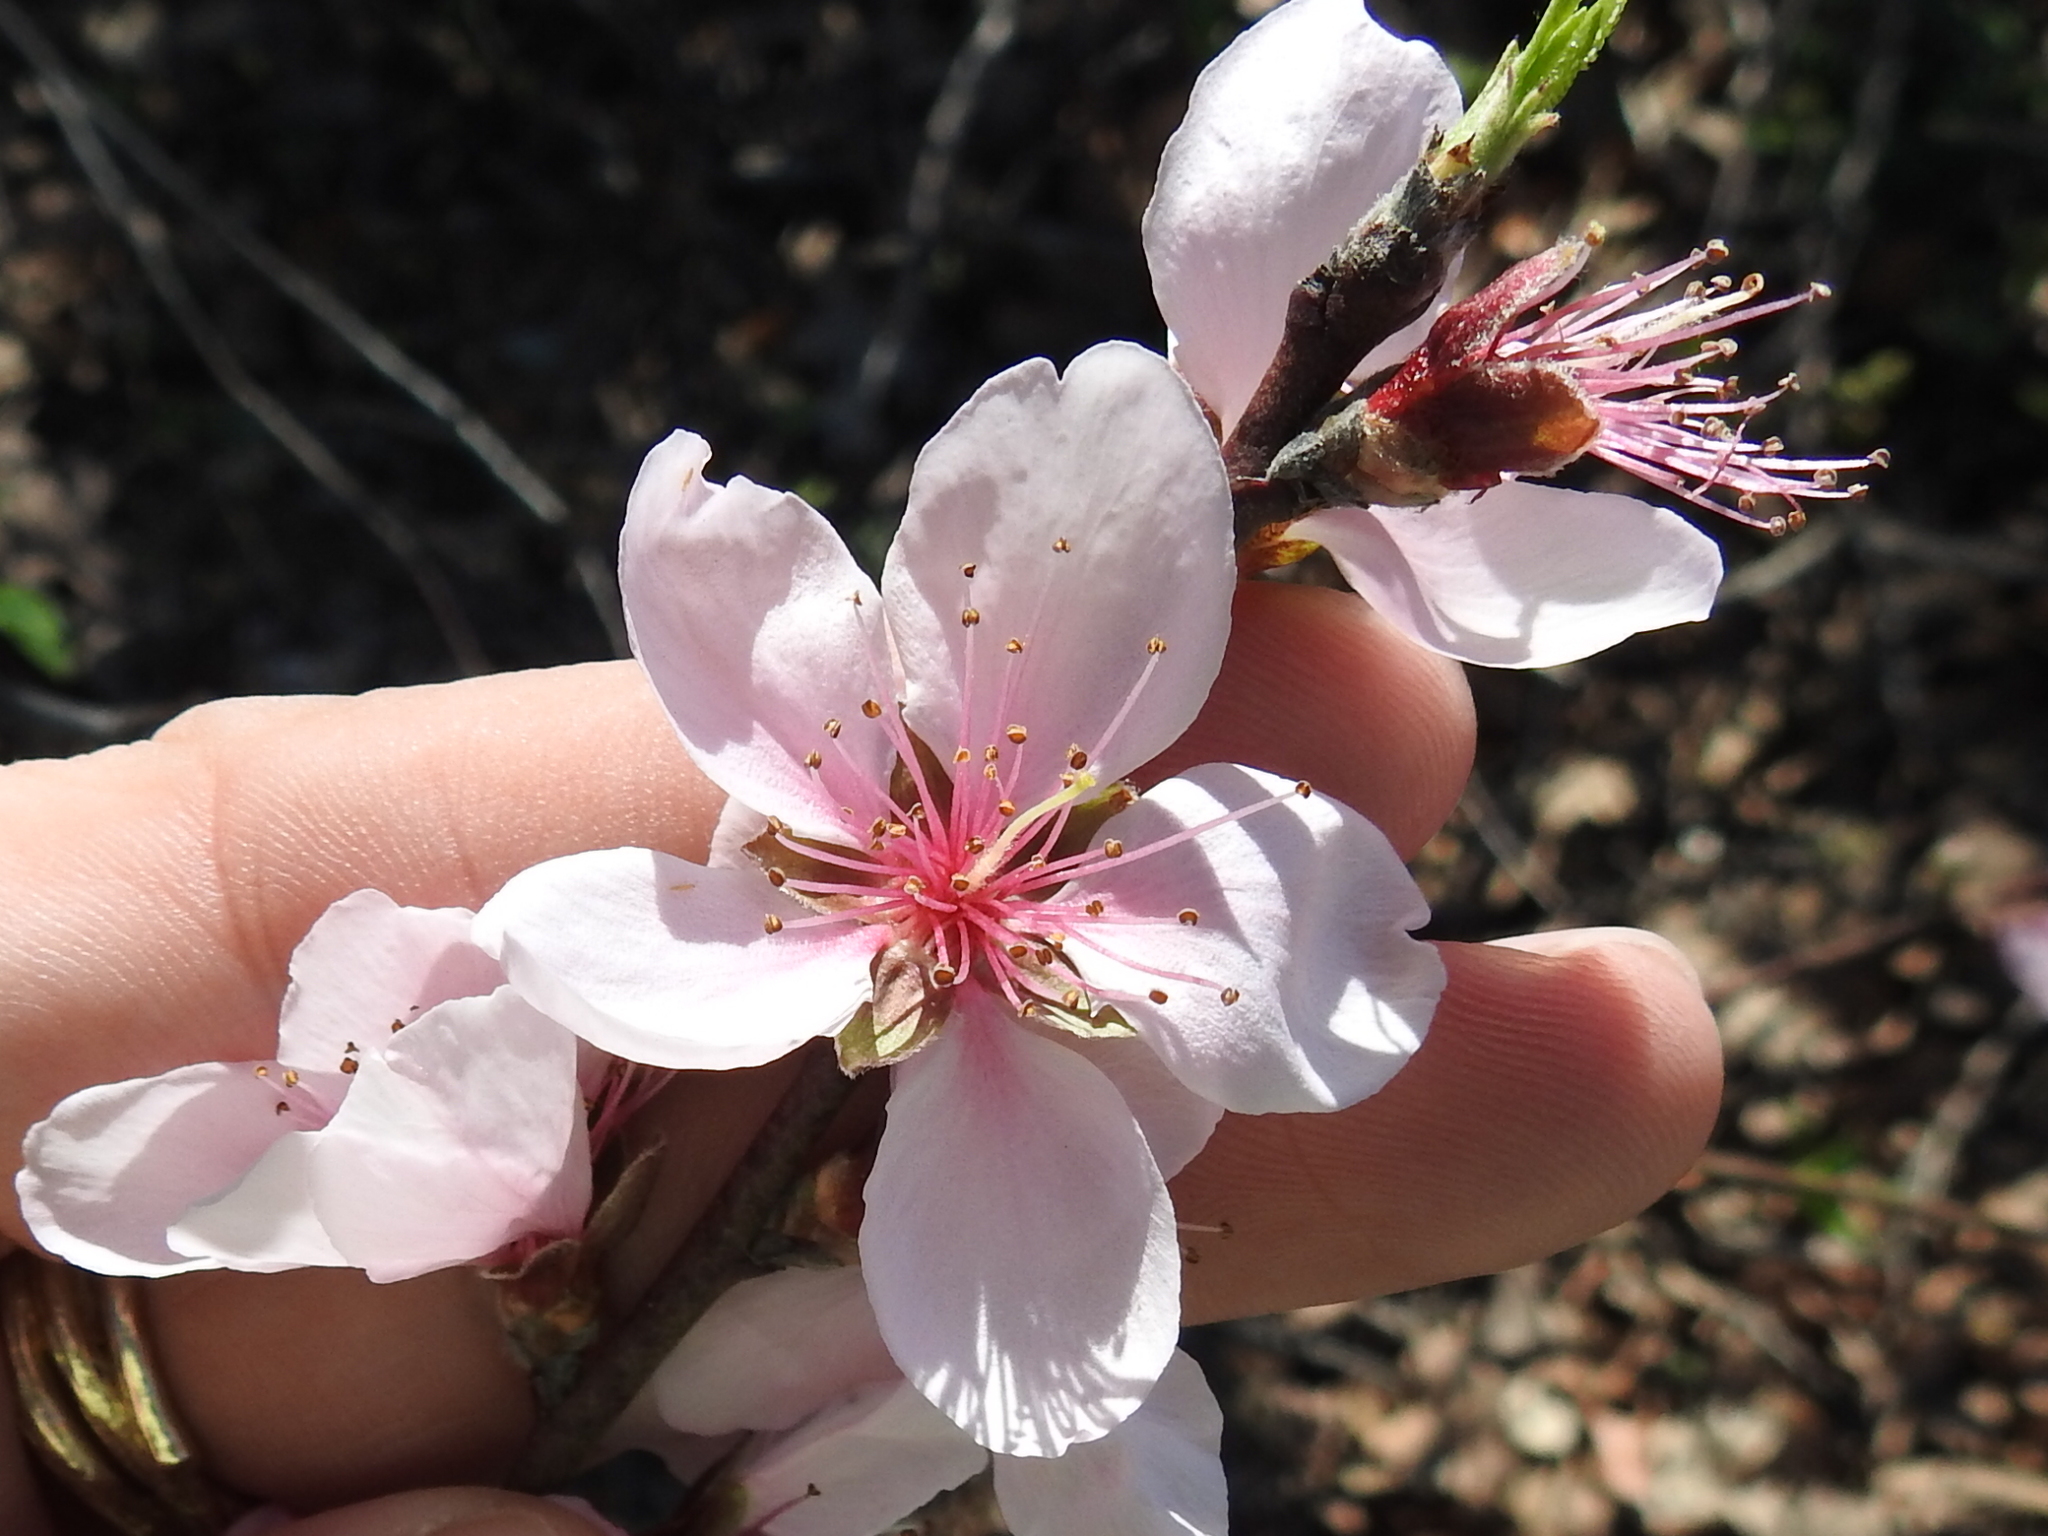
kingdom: Plantae
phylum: Tracheophyta
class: Magnoliopsida
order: Rosales
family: Rosaceae
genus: Prunus
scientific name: Prunus persica
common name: Peach
